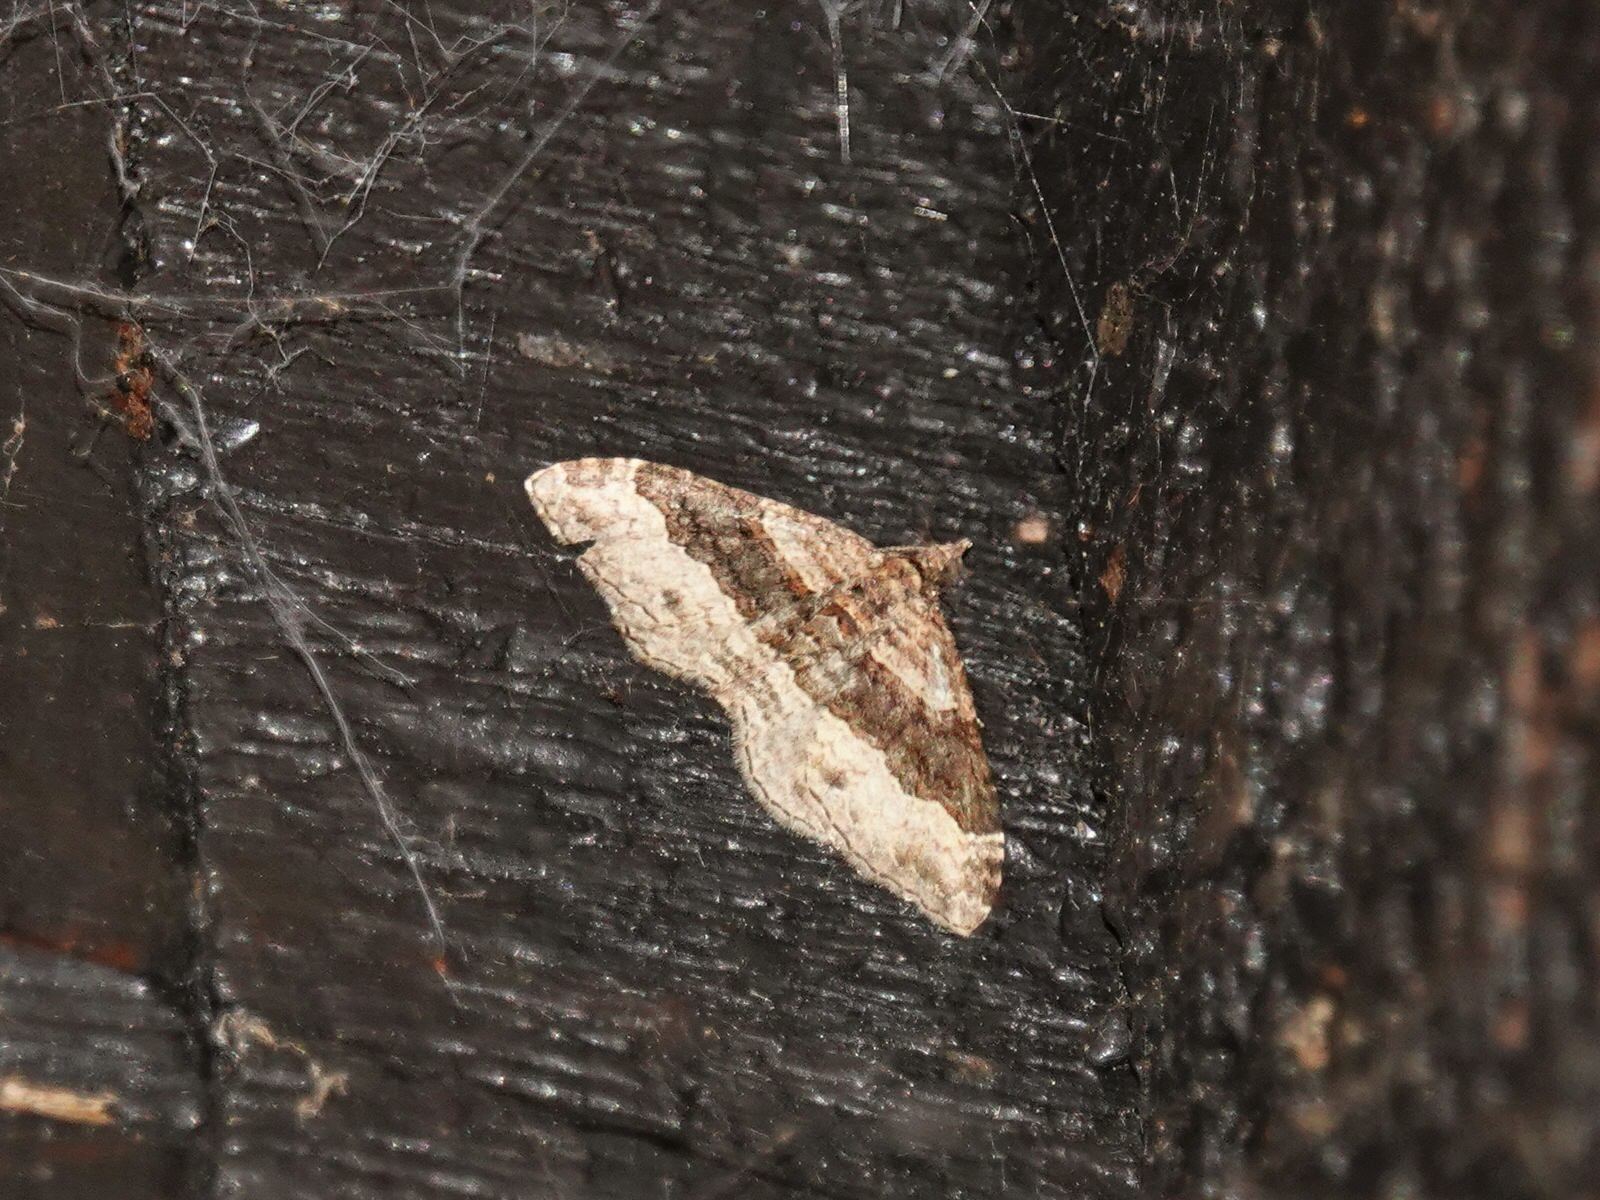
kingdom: Animalia
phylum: Arthropoda
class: Insecta
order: Lepidoptera
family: Geometridae
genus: Epyaxa
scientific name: Epyaxa lucidata
